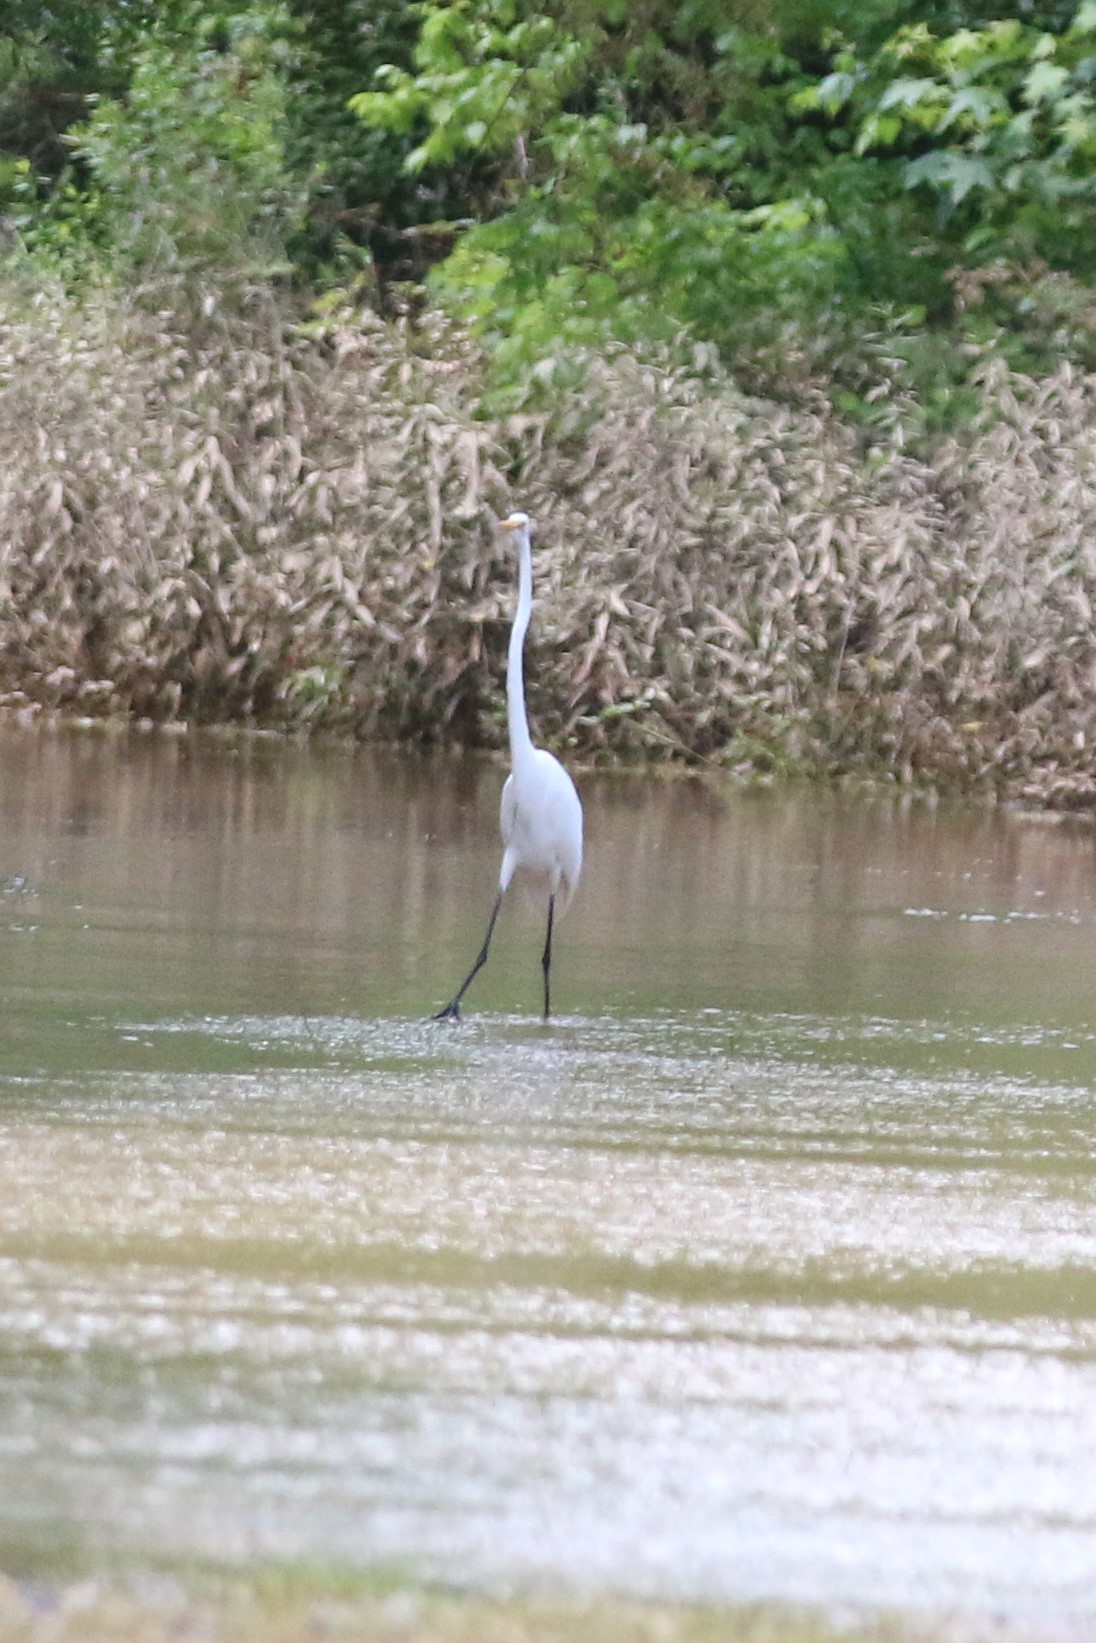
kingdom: Animalia
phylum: Chordata
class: Aves
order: Pelecaniformes
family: Ardeidae
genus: Ardea
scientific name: Ardea alba
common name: Great egret
